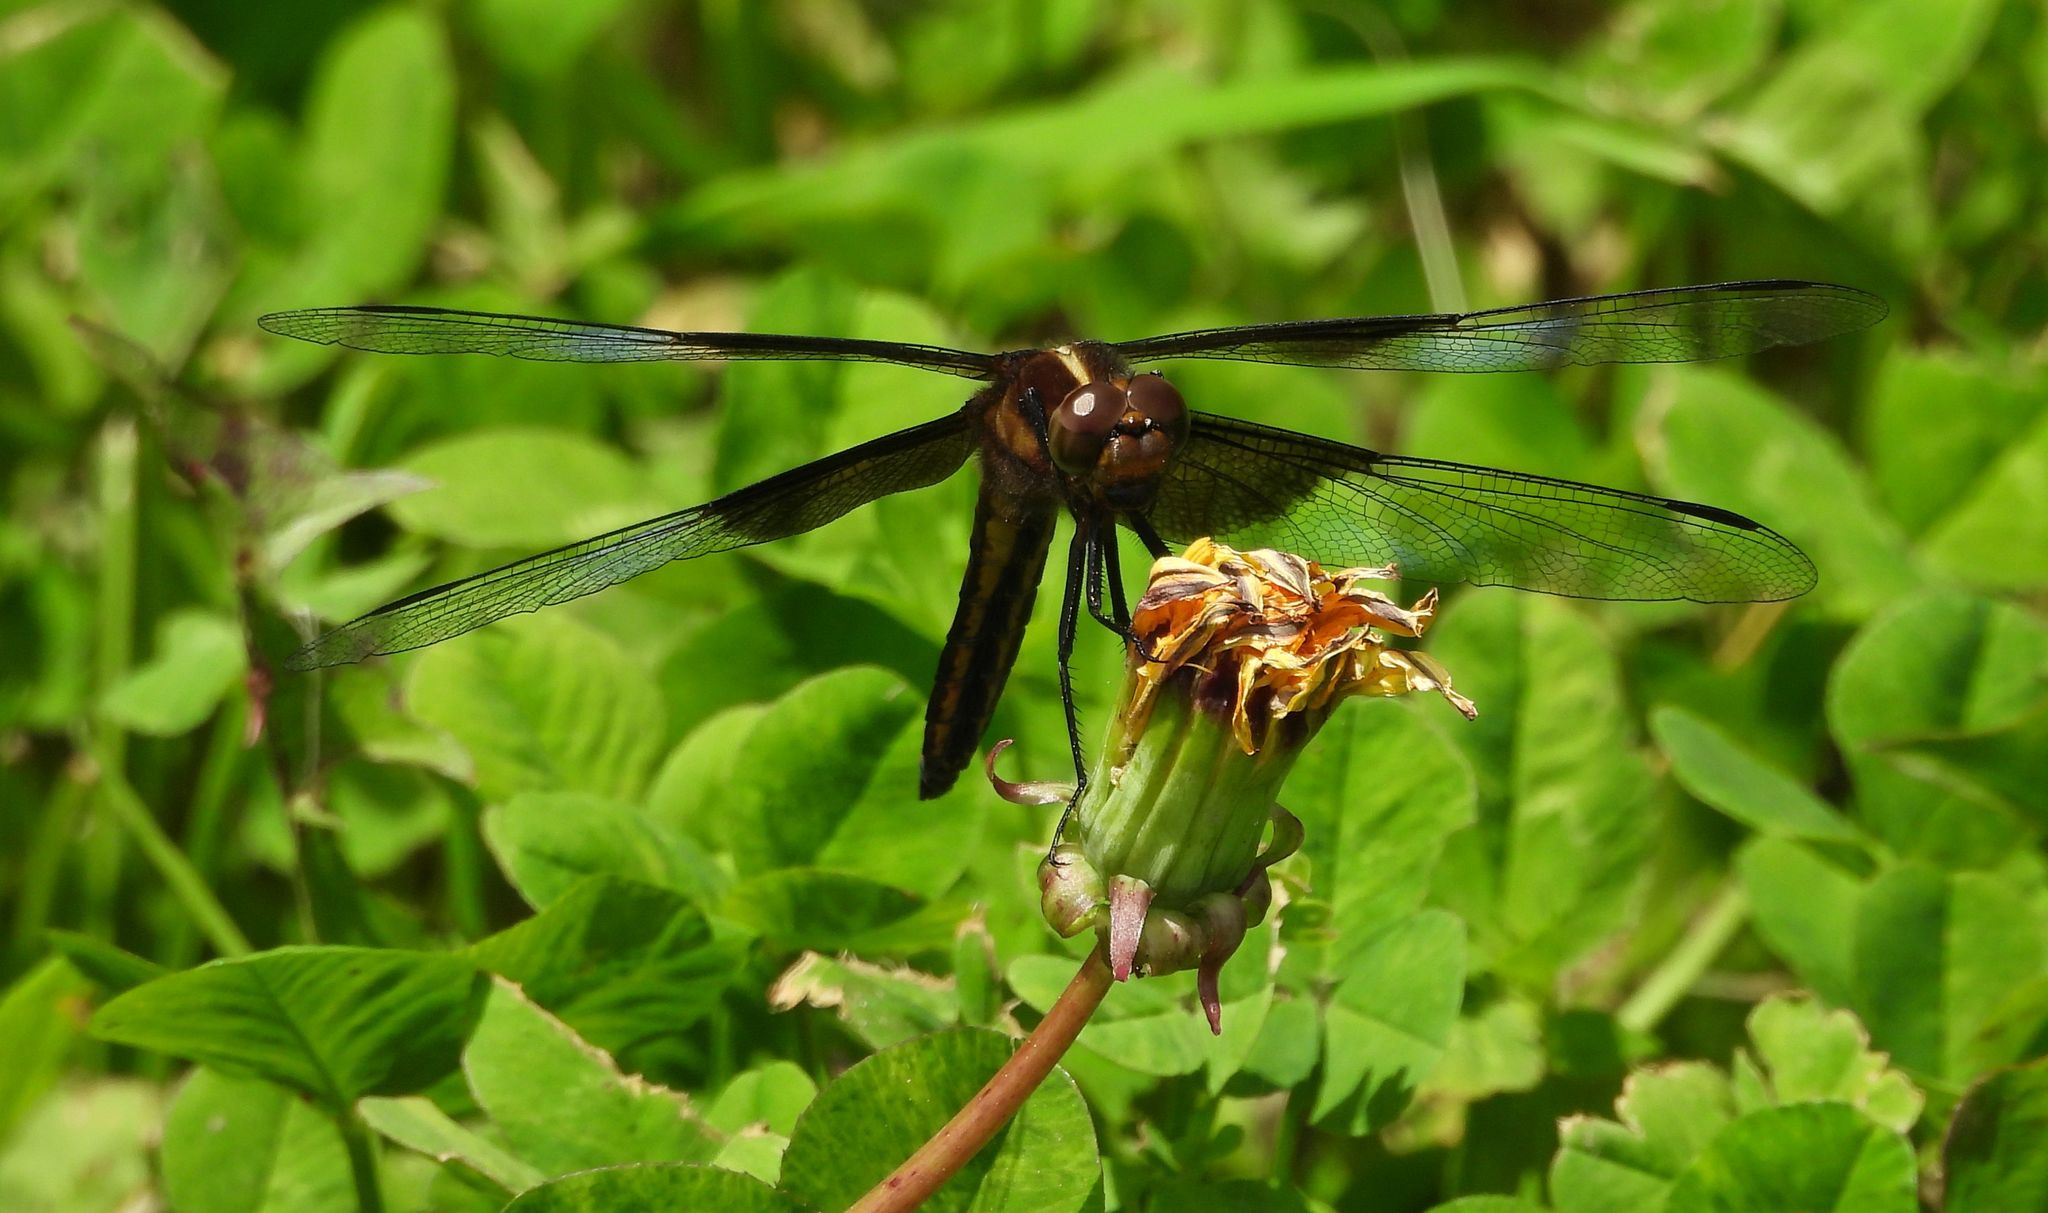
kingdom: Animalia
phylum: Arthropoda
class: Insecta
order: Odonata
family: Libellulidae
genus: Libellula
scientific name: Libellula luctuosa
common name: Widow skimmer
